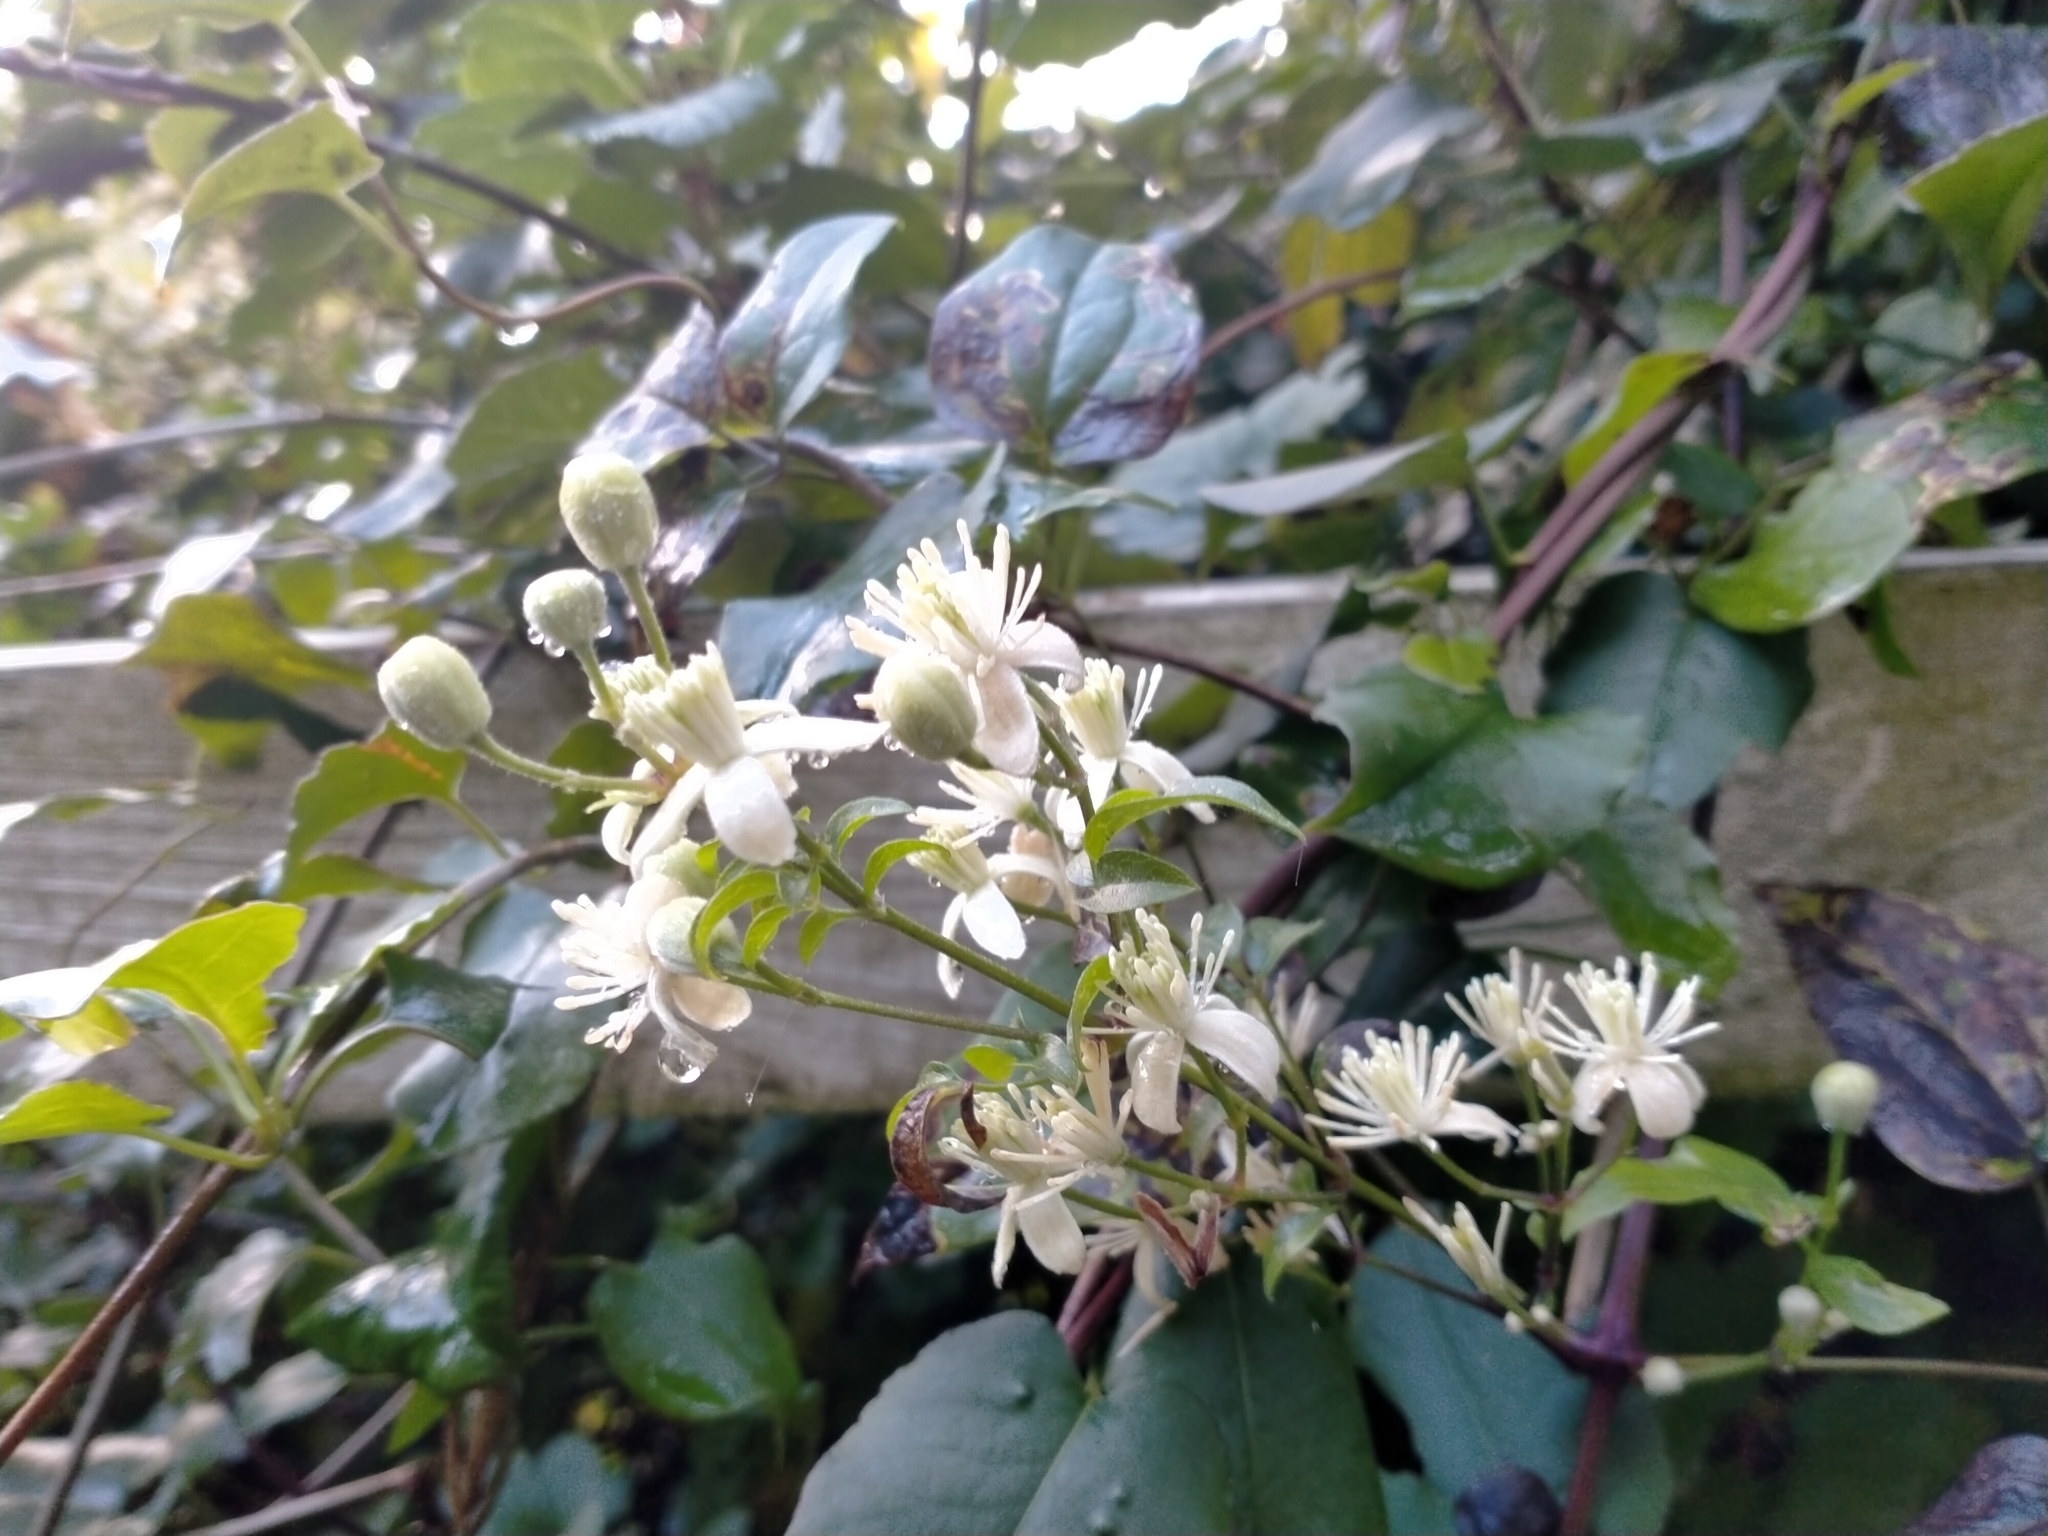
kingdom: Plantae
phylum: Tracheophyta
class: Magnoliopsida
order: Ranunculales
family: Ranunculaceae
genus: Clematis
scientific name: Clematis vitalba
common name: Evergreen clematis
